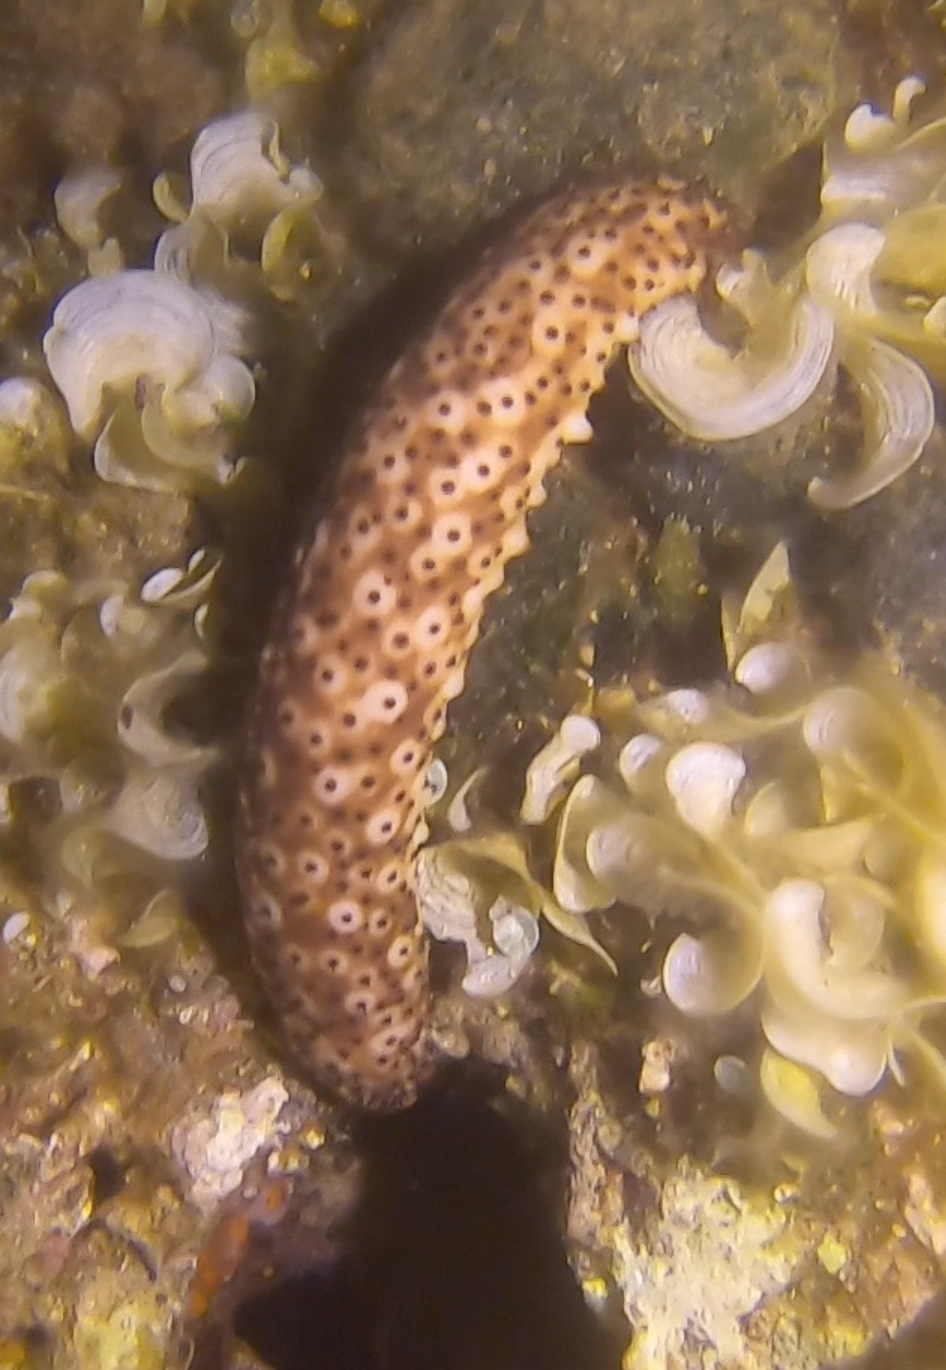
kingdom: Animalia
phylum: Echinodermata
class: Holothuroidea
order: Holothuriida
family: Holothuriidae
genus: Holothuria
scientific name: Holothuria sanctori
